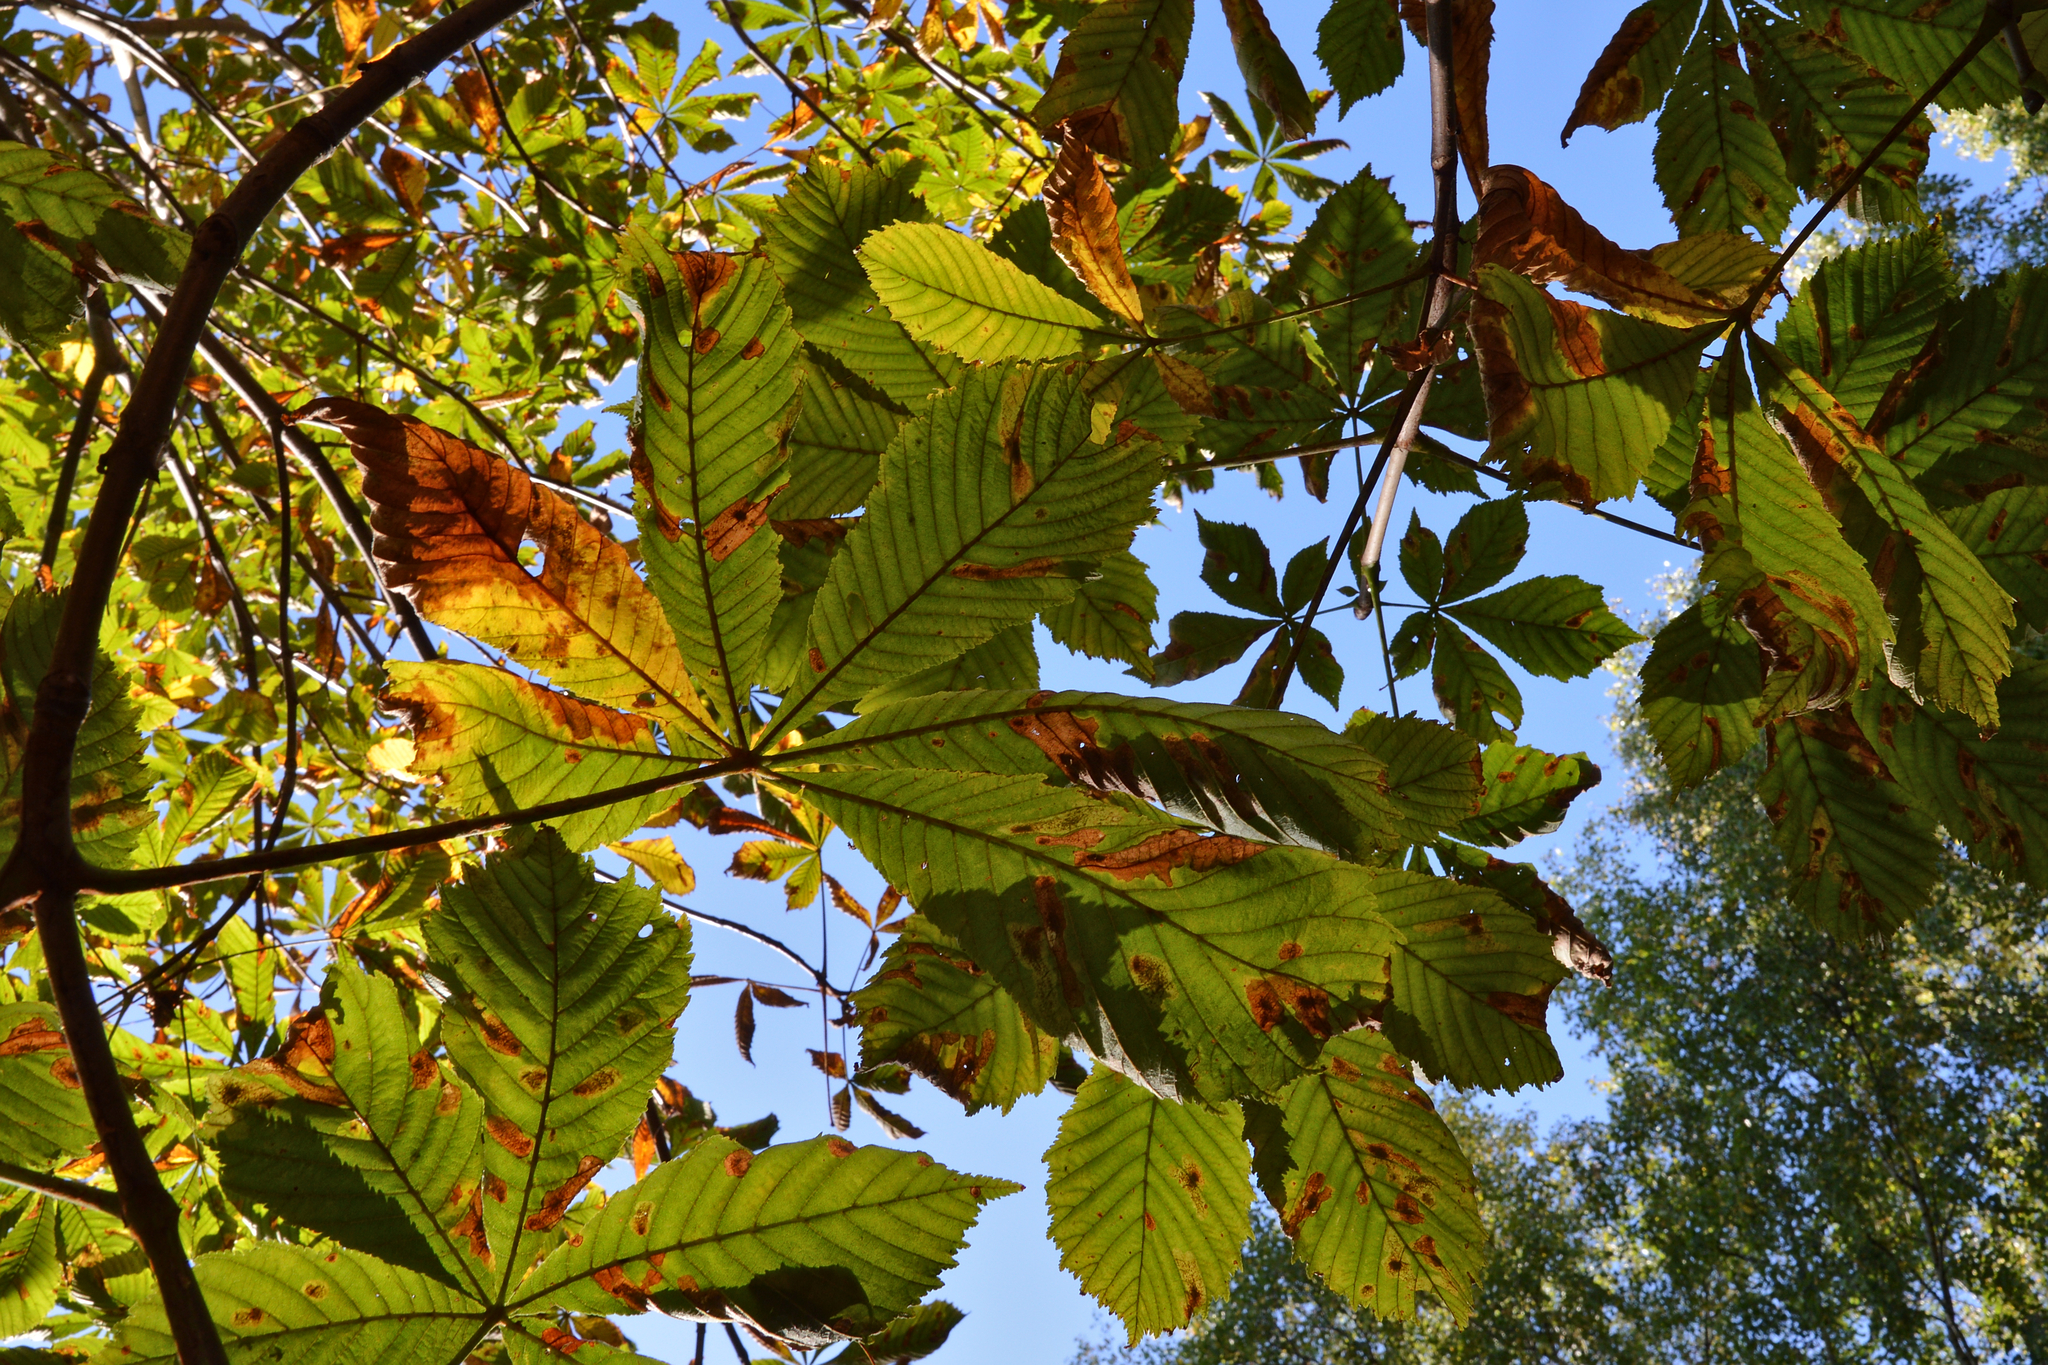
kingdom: Plantae
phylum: Tracheophyta
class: Magnoliopsida
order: Sapindales
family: Sapindaceae
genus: Aesculus
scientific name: Aesculus hippocastanum
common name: Horse-chestnut
